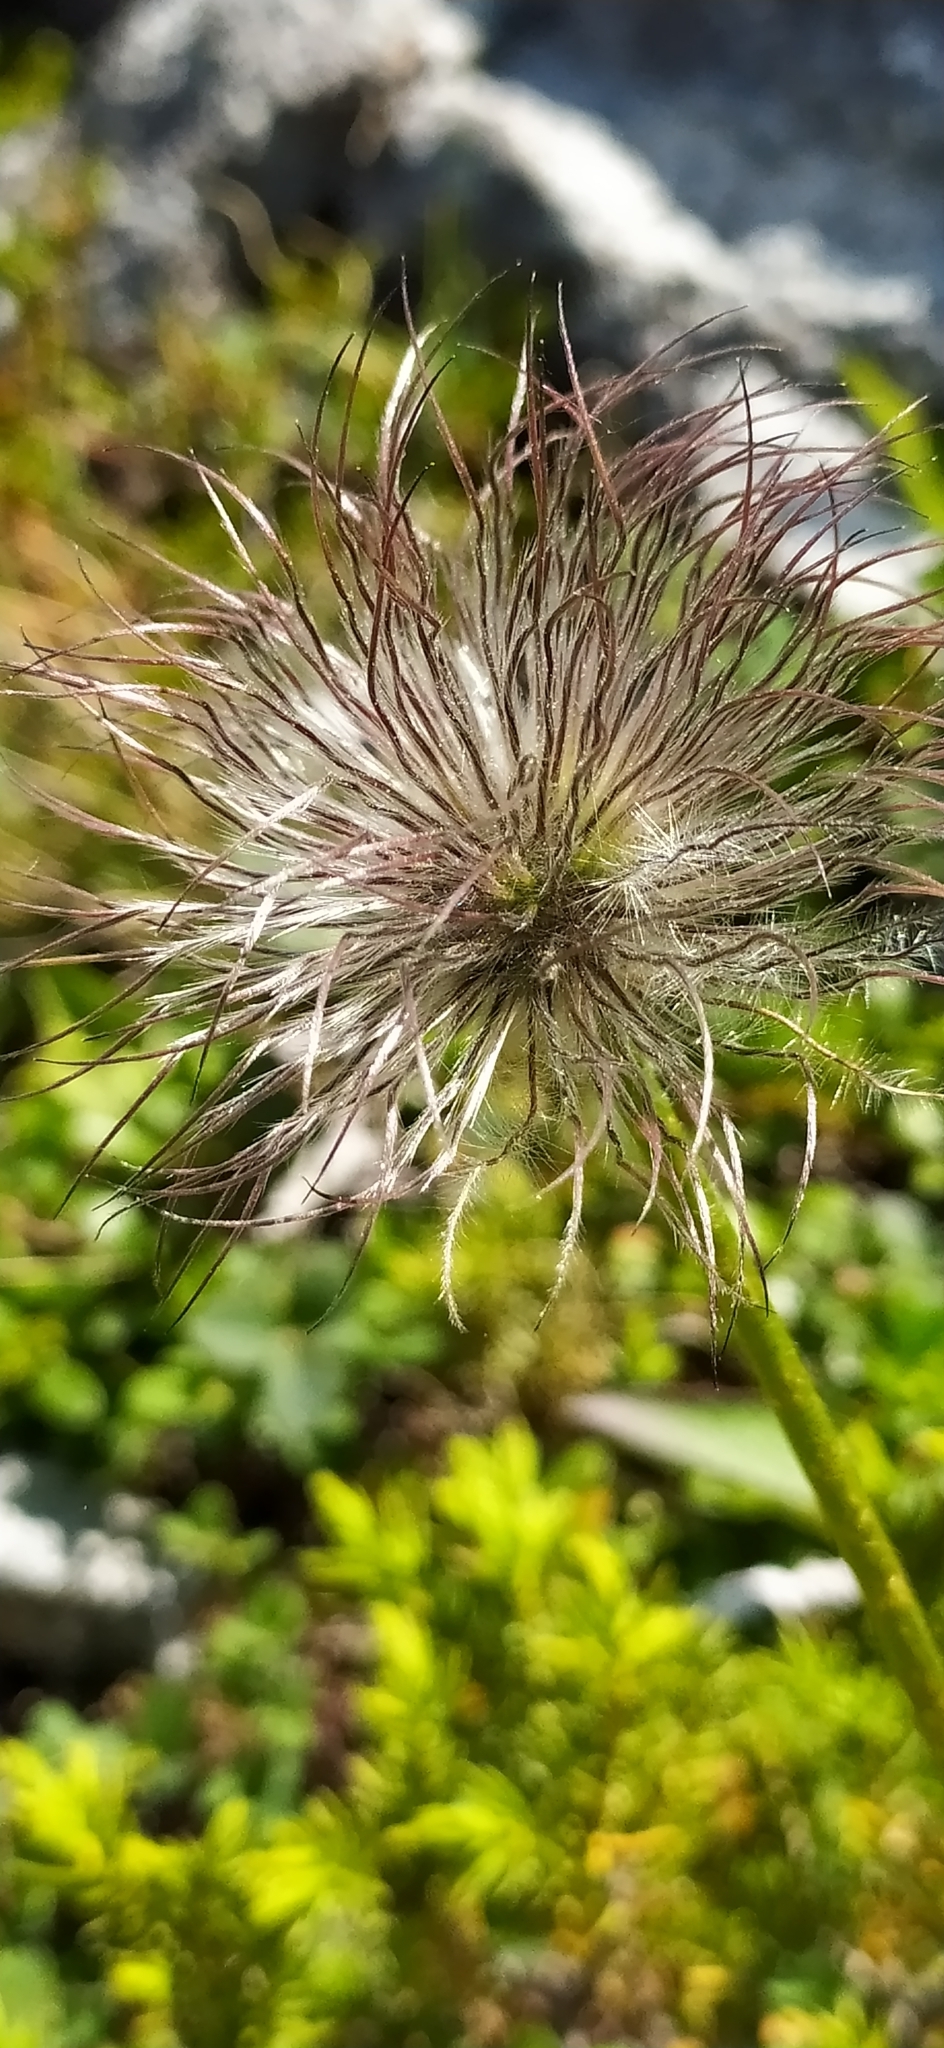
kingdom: Plantae
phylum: Tracheophyta
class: Magnoliopsida
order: Ranunculales
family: Ranunculaceae
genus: Pulsatilla
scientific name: Pulsatilla patens
